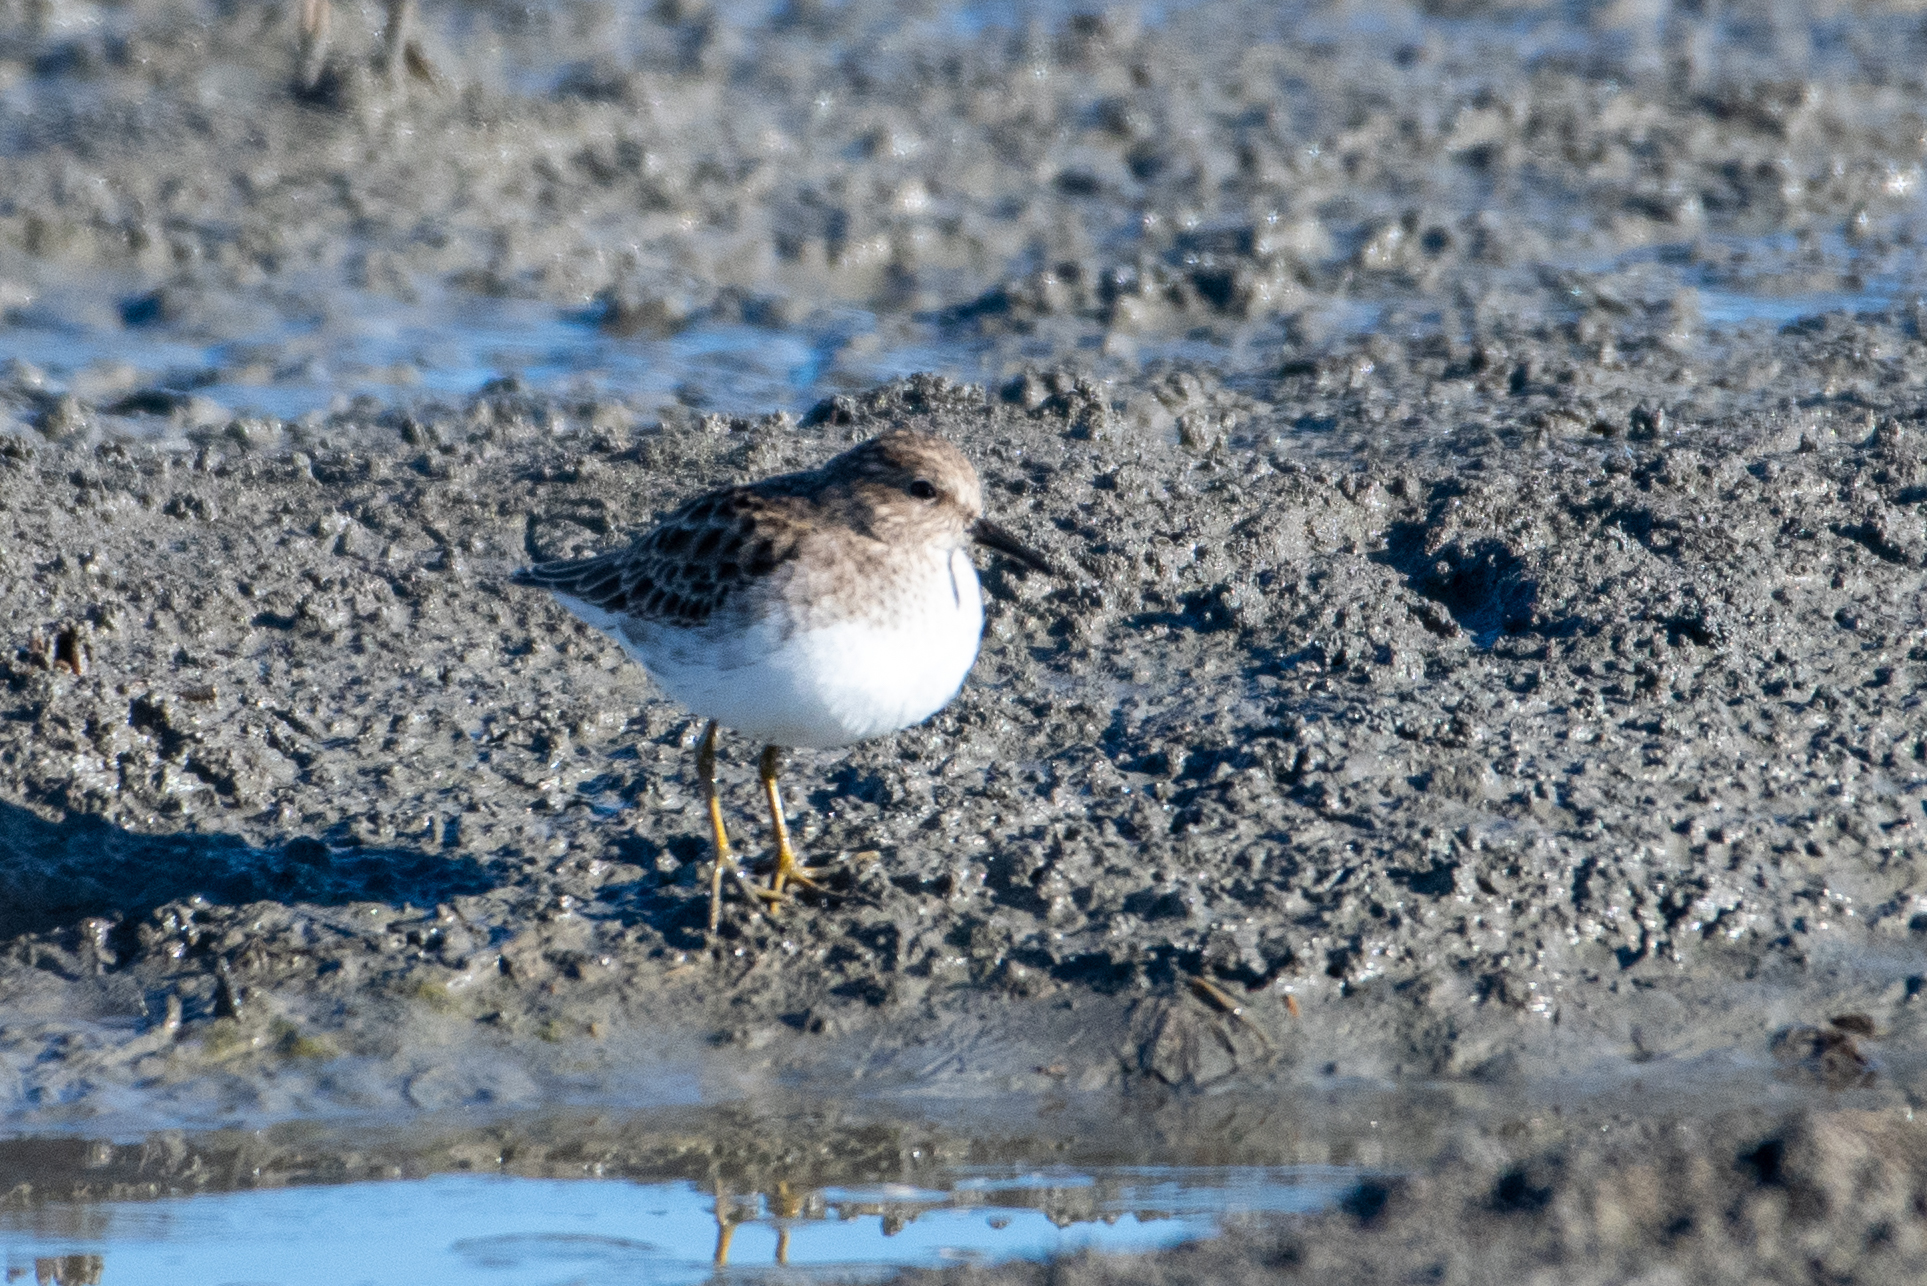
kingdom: Animalia
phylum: Chordata
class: Aves
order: Charadriiformes
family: Scolopacidae
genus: Calidris
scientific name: Calidris minutilla
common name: Least sandpiper
